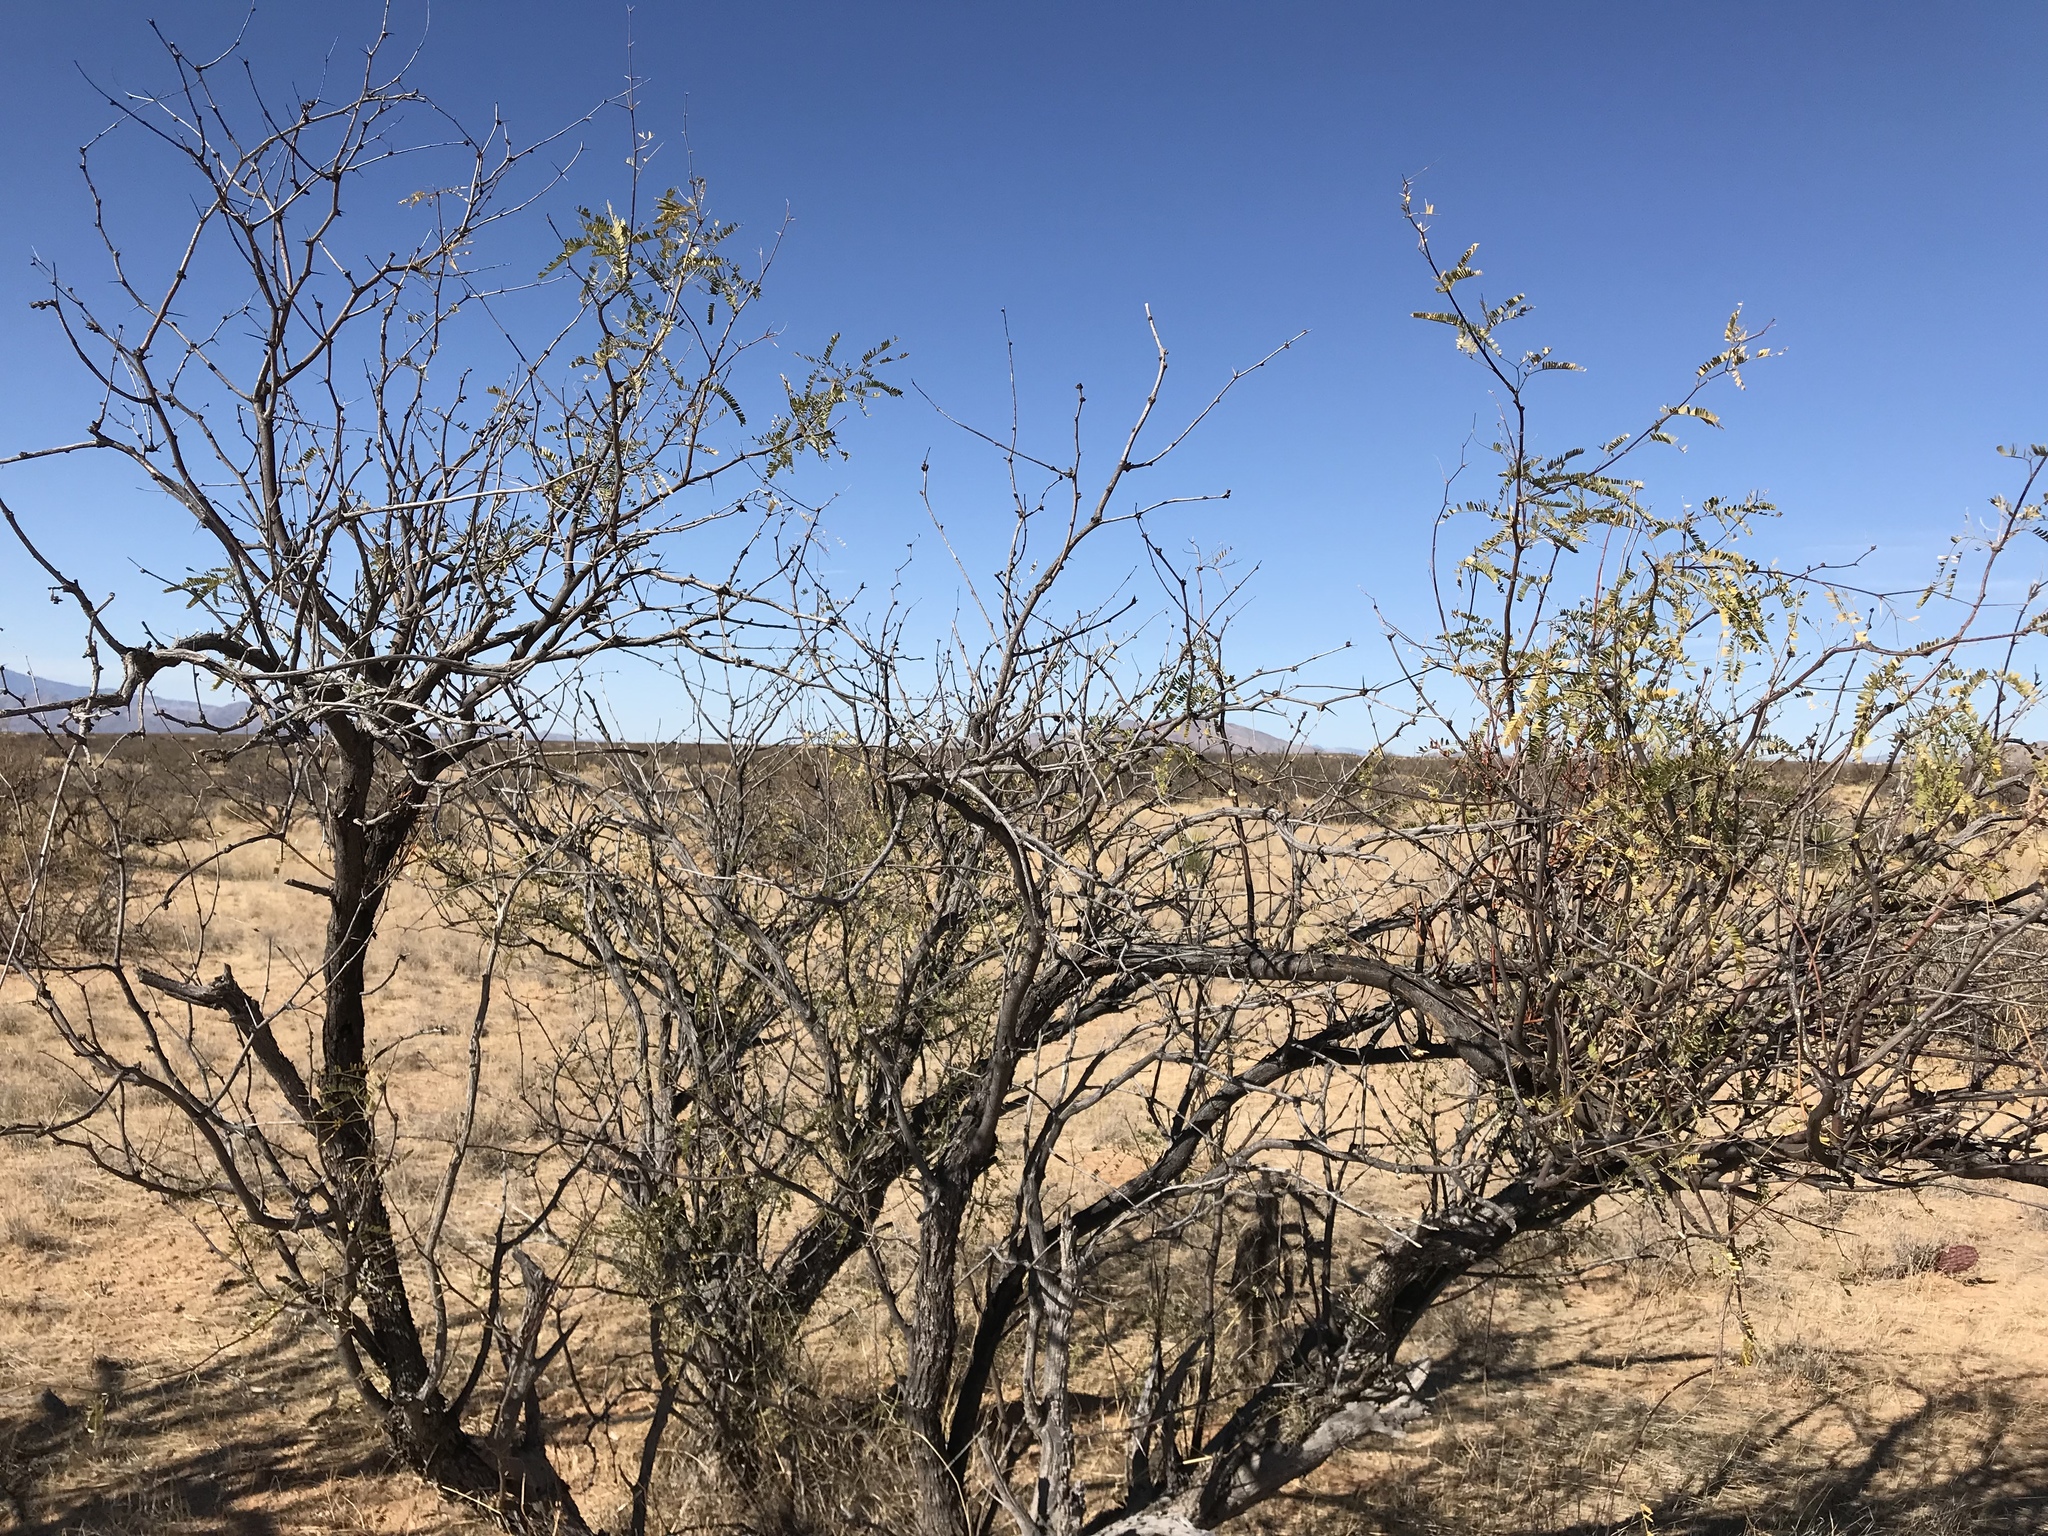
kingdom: Plantae
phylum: Tracheophyta
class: Magnoliopsida
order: Fabales
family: Fabaceae
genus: Prosopis
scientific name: Prosopis velutina
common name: Velvet mesquite
